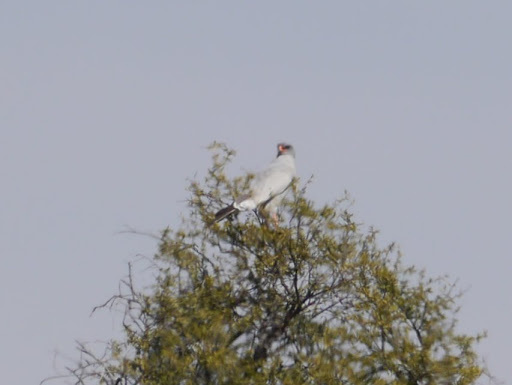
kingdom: Animalia
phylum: Chordata
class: Aves
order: Accipitriformes
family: Accipitridae
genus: Melierax
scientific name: Melierax canorus
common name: Pale chanting-goshawk
